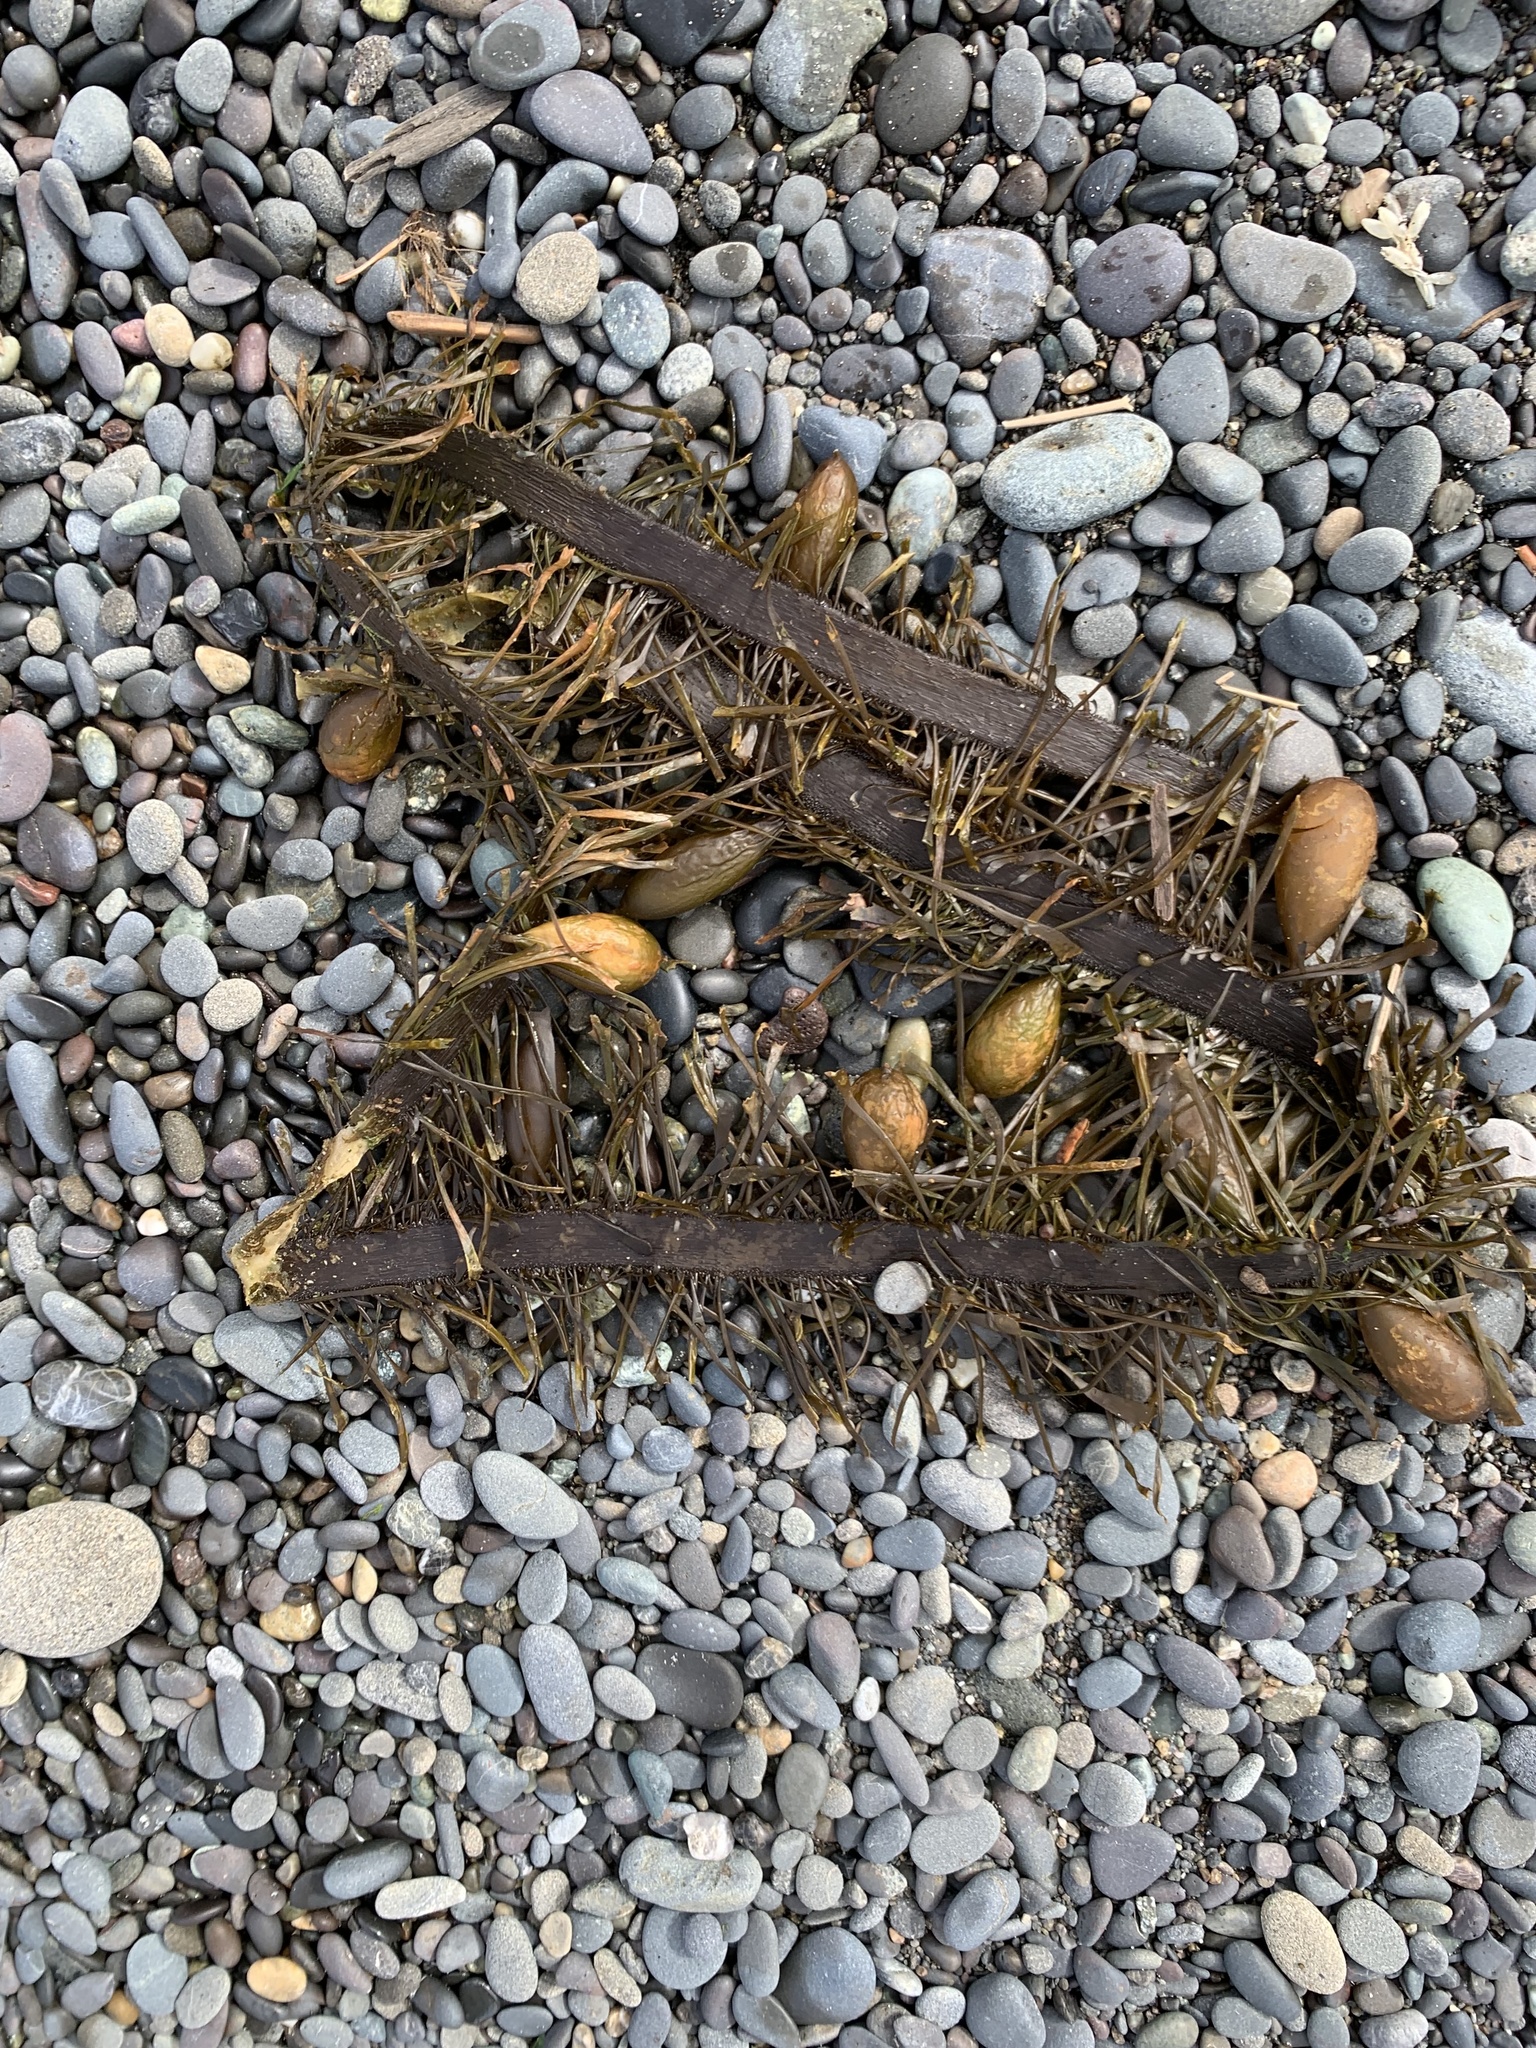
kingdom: Chromista
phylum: Ochrophyta
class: Phaeophyceae
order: Laminariales
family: Lessoniaceae
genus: Egregia
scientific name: Egregia menziesii
